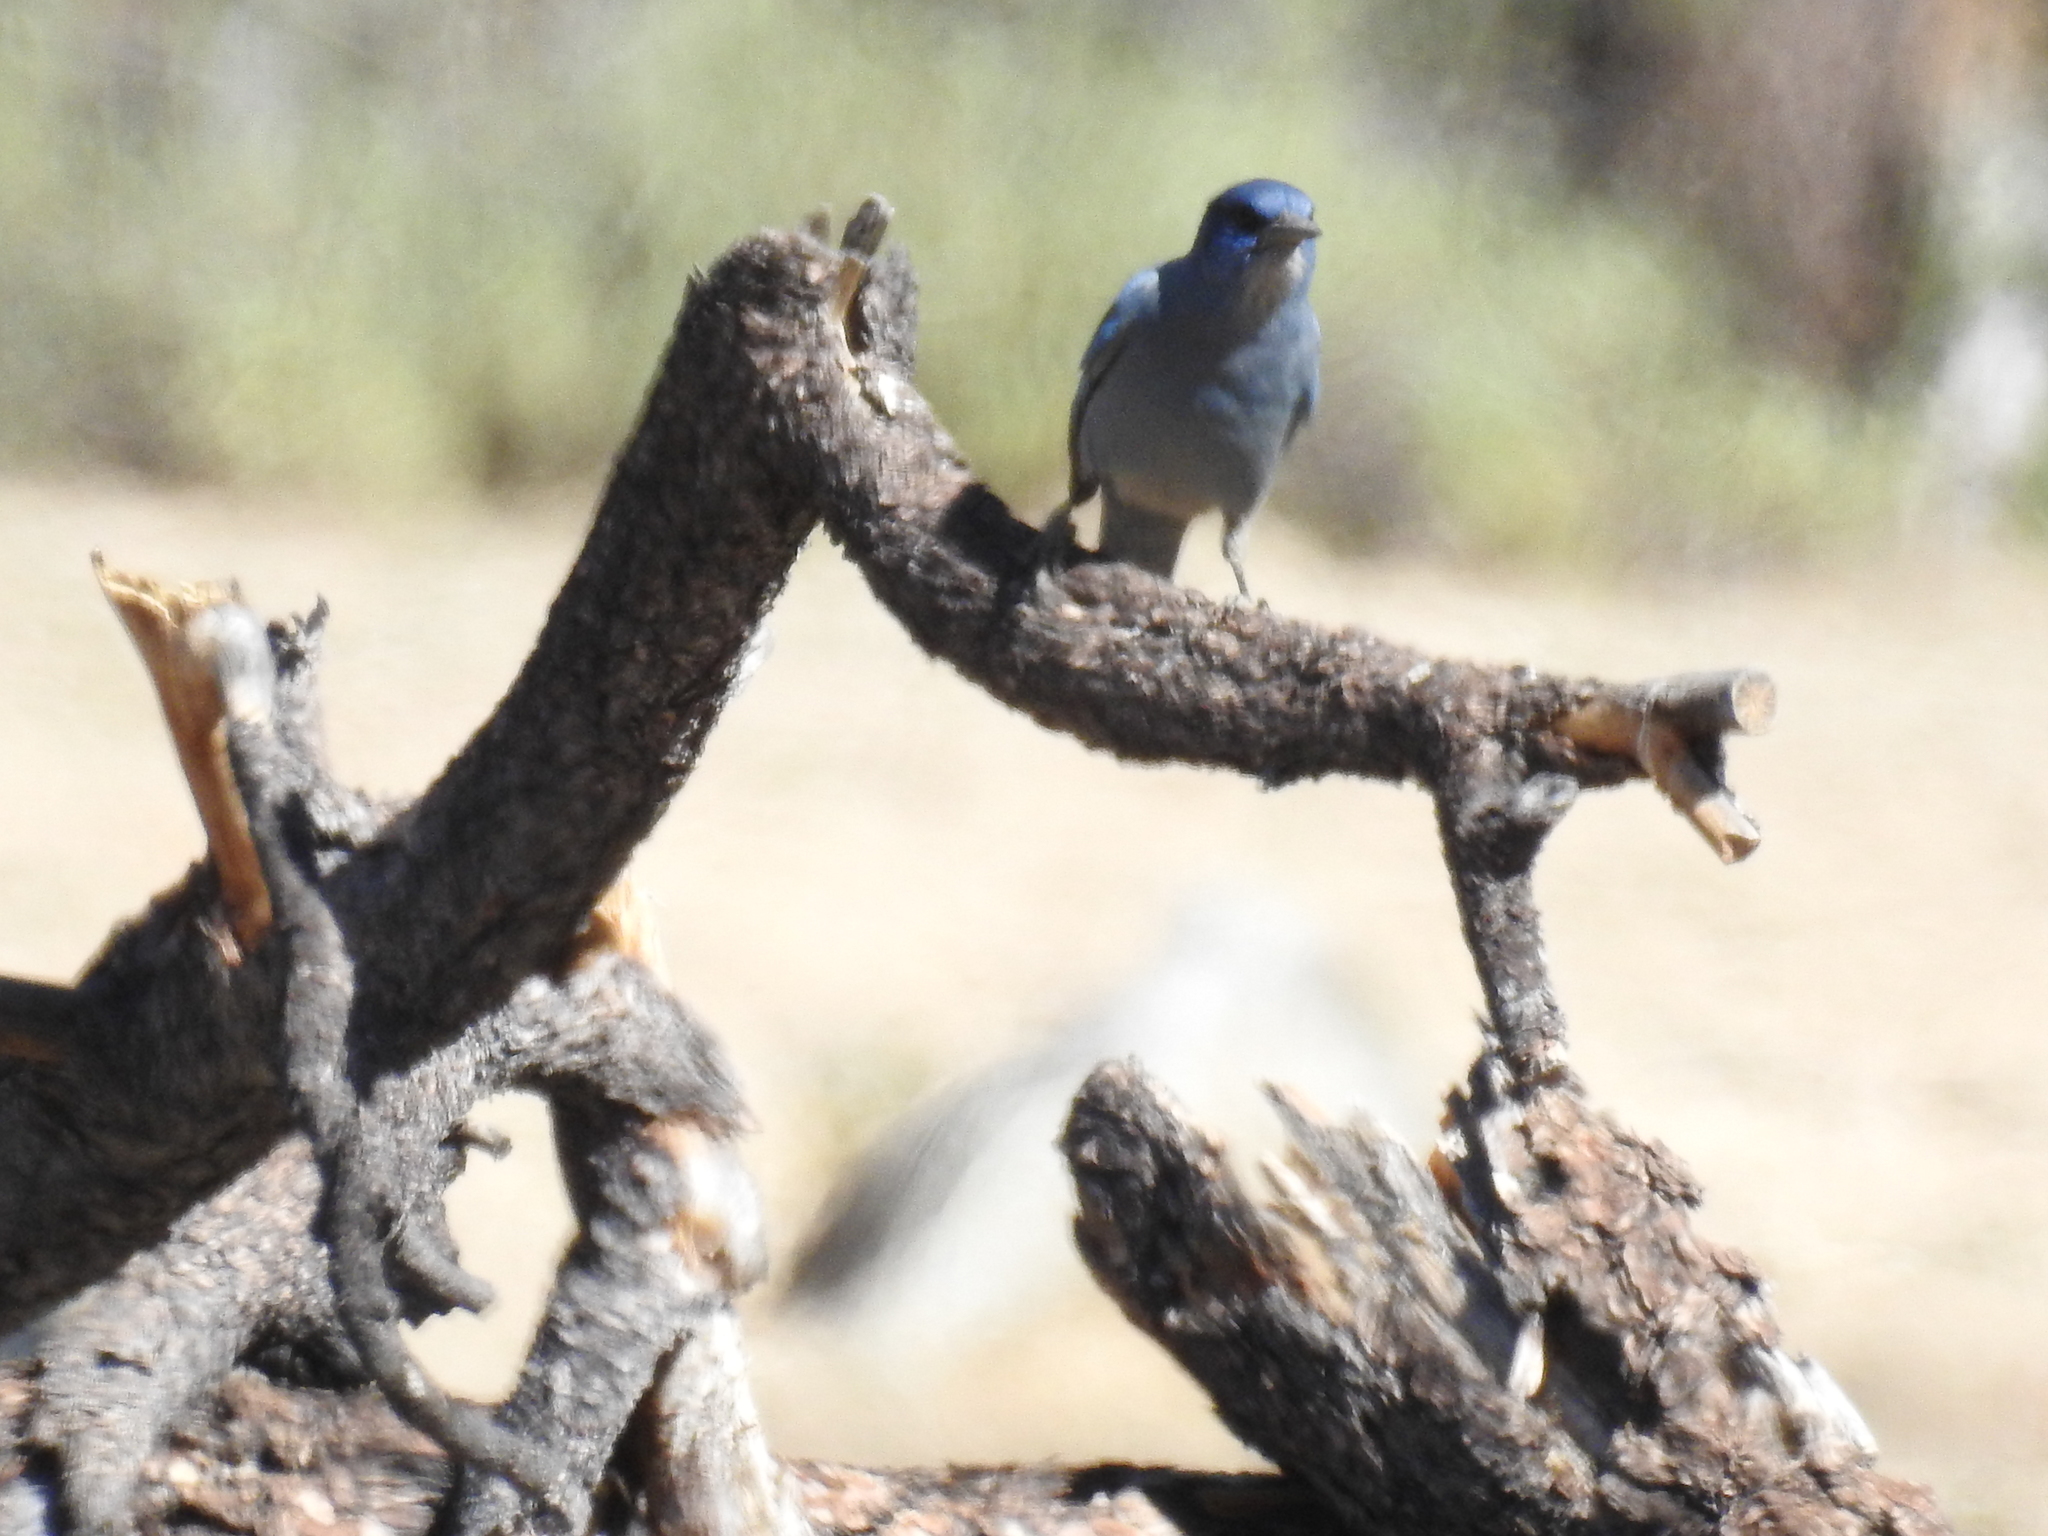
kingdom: Animalia
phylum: Chordata
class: Aves
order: Passeriformes
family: Corvidae
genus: Gymnorhinus
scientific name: Gymnorhinus cyanocephalus
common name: Pinyon jay
